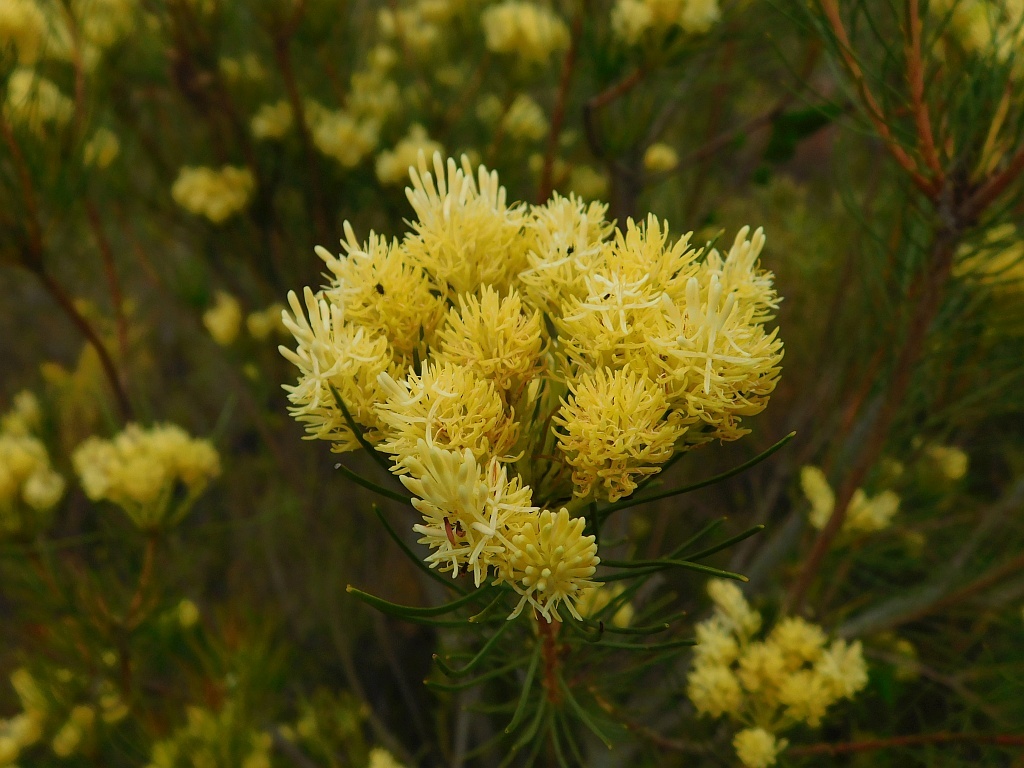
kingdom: Plantae
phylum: Tracheophyta
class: Magnoliopsida
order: Proteales
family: Proteaceae
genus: Aulax
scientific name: Aulax cancellata
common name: Channel-leaf featherbush
